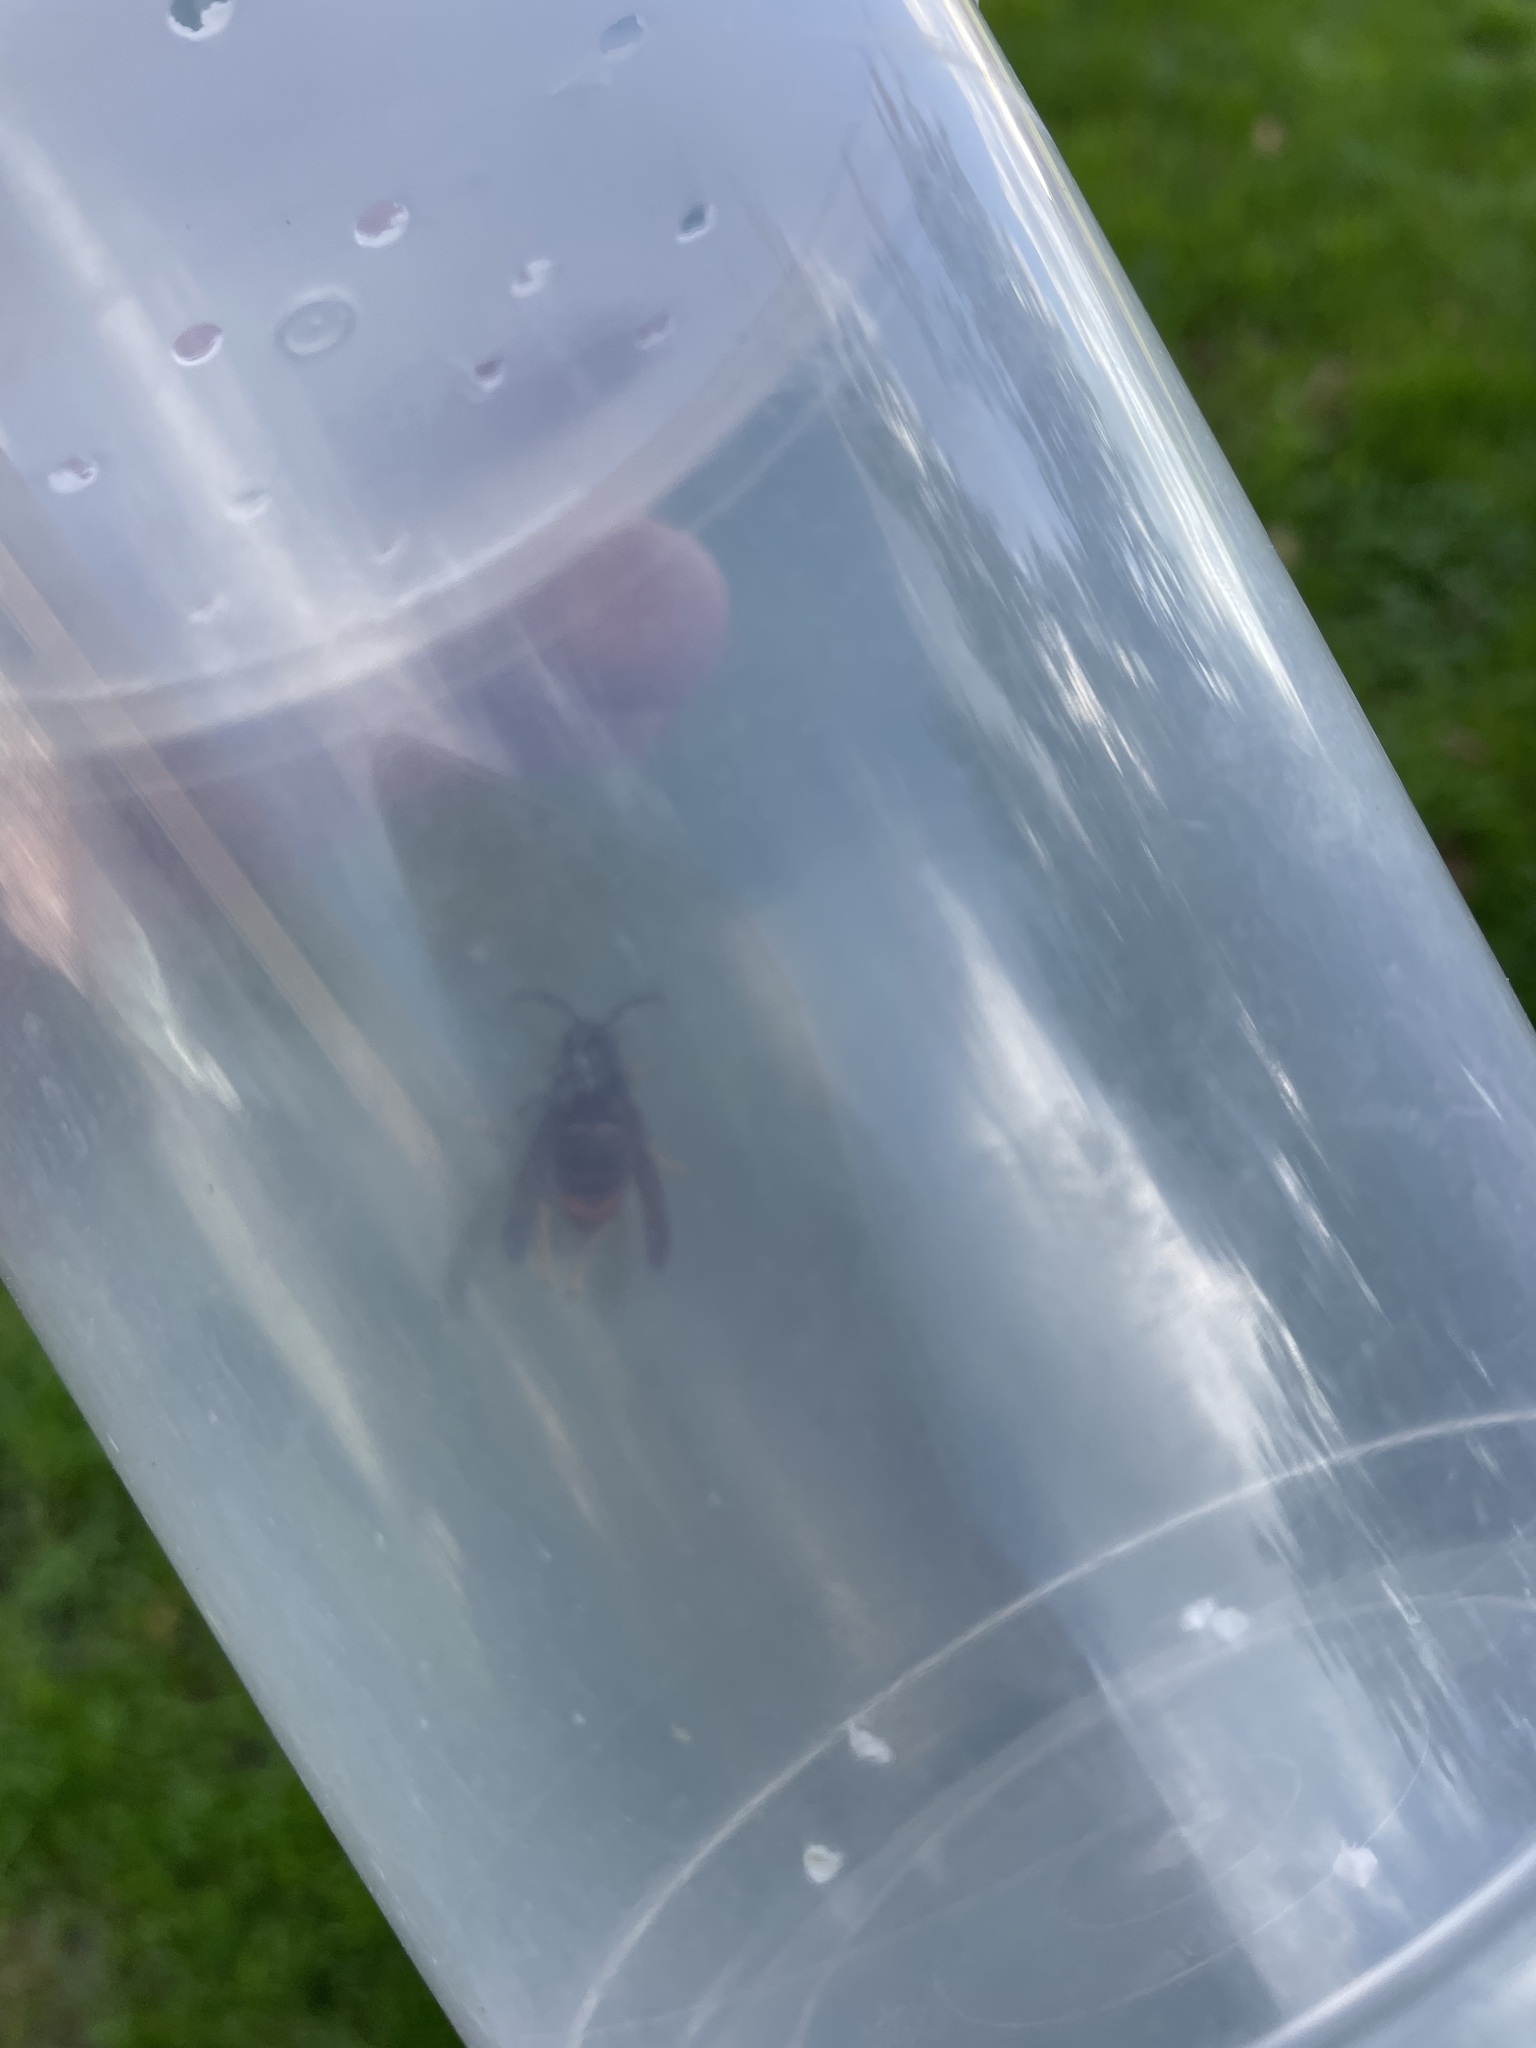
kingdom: Animalia
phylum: Arthropoda
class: Insecta
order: Hymenoptera
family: Vespidae
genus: Vespa
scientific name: Vespa velutina
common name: Asian hornet
